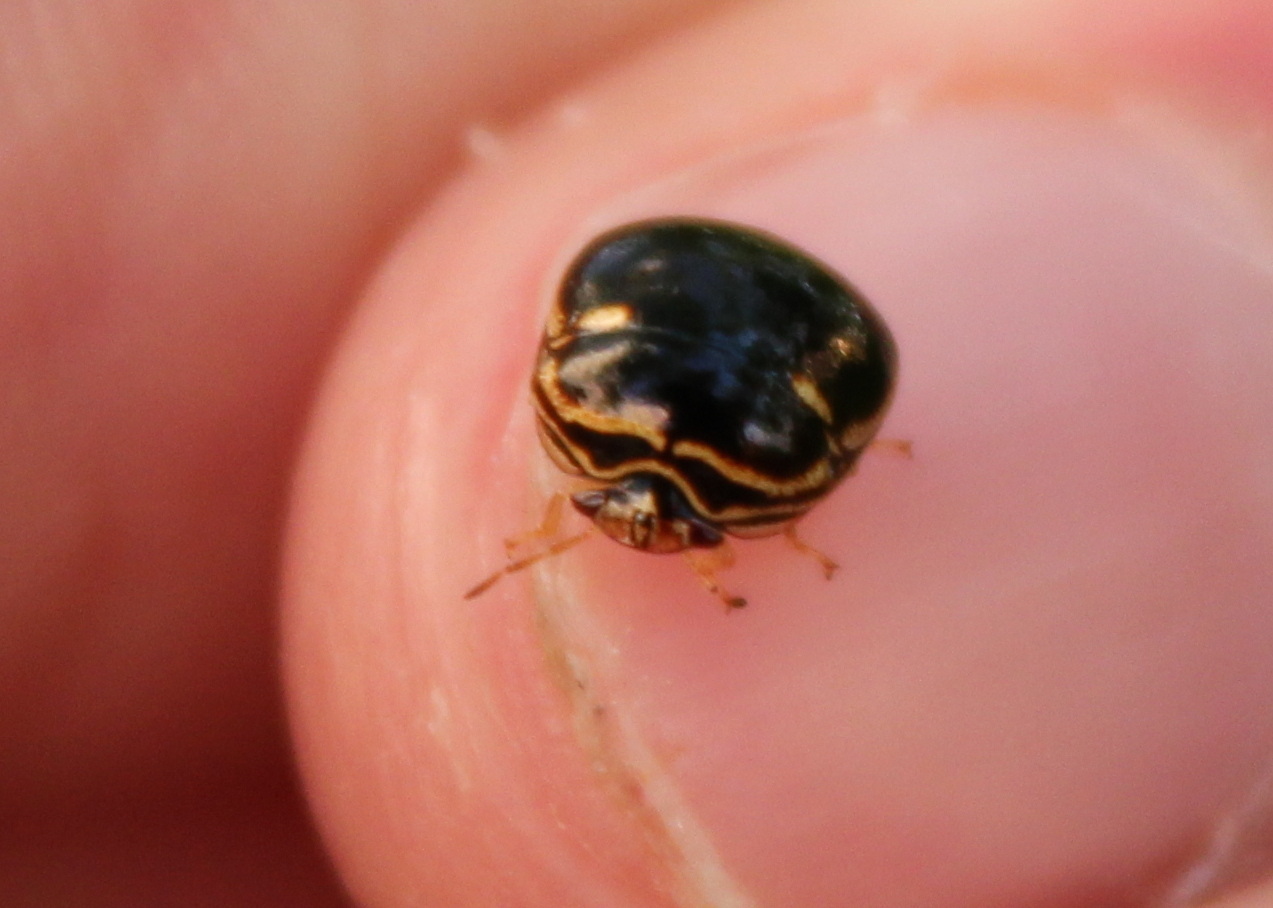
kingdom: Animalia
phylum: Arthropoda
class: Insecta
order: Hemiptera
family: Plataspidae
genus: Coptosoma
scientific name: Coptosoma
